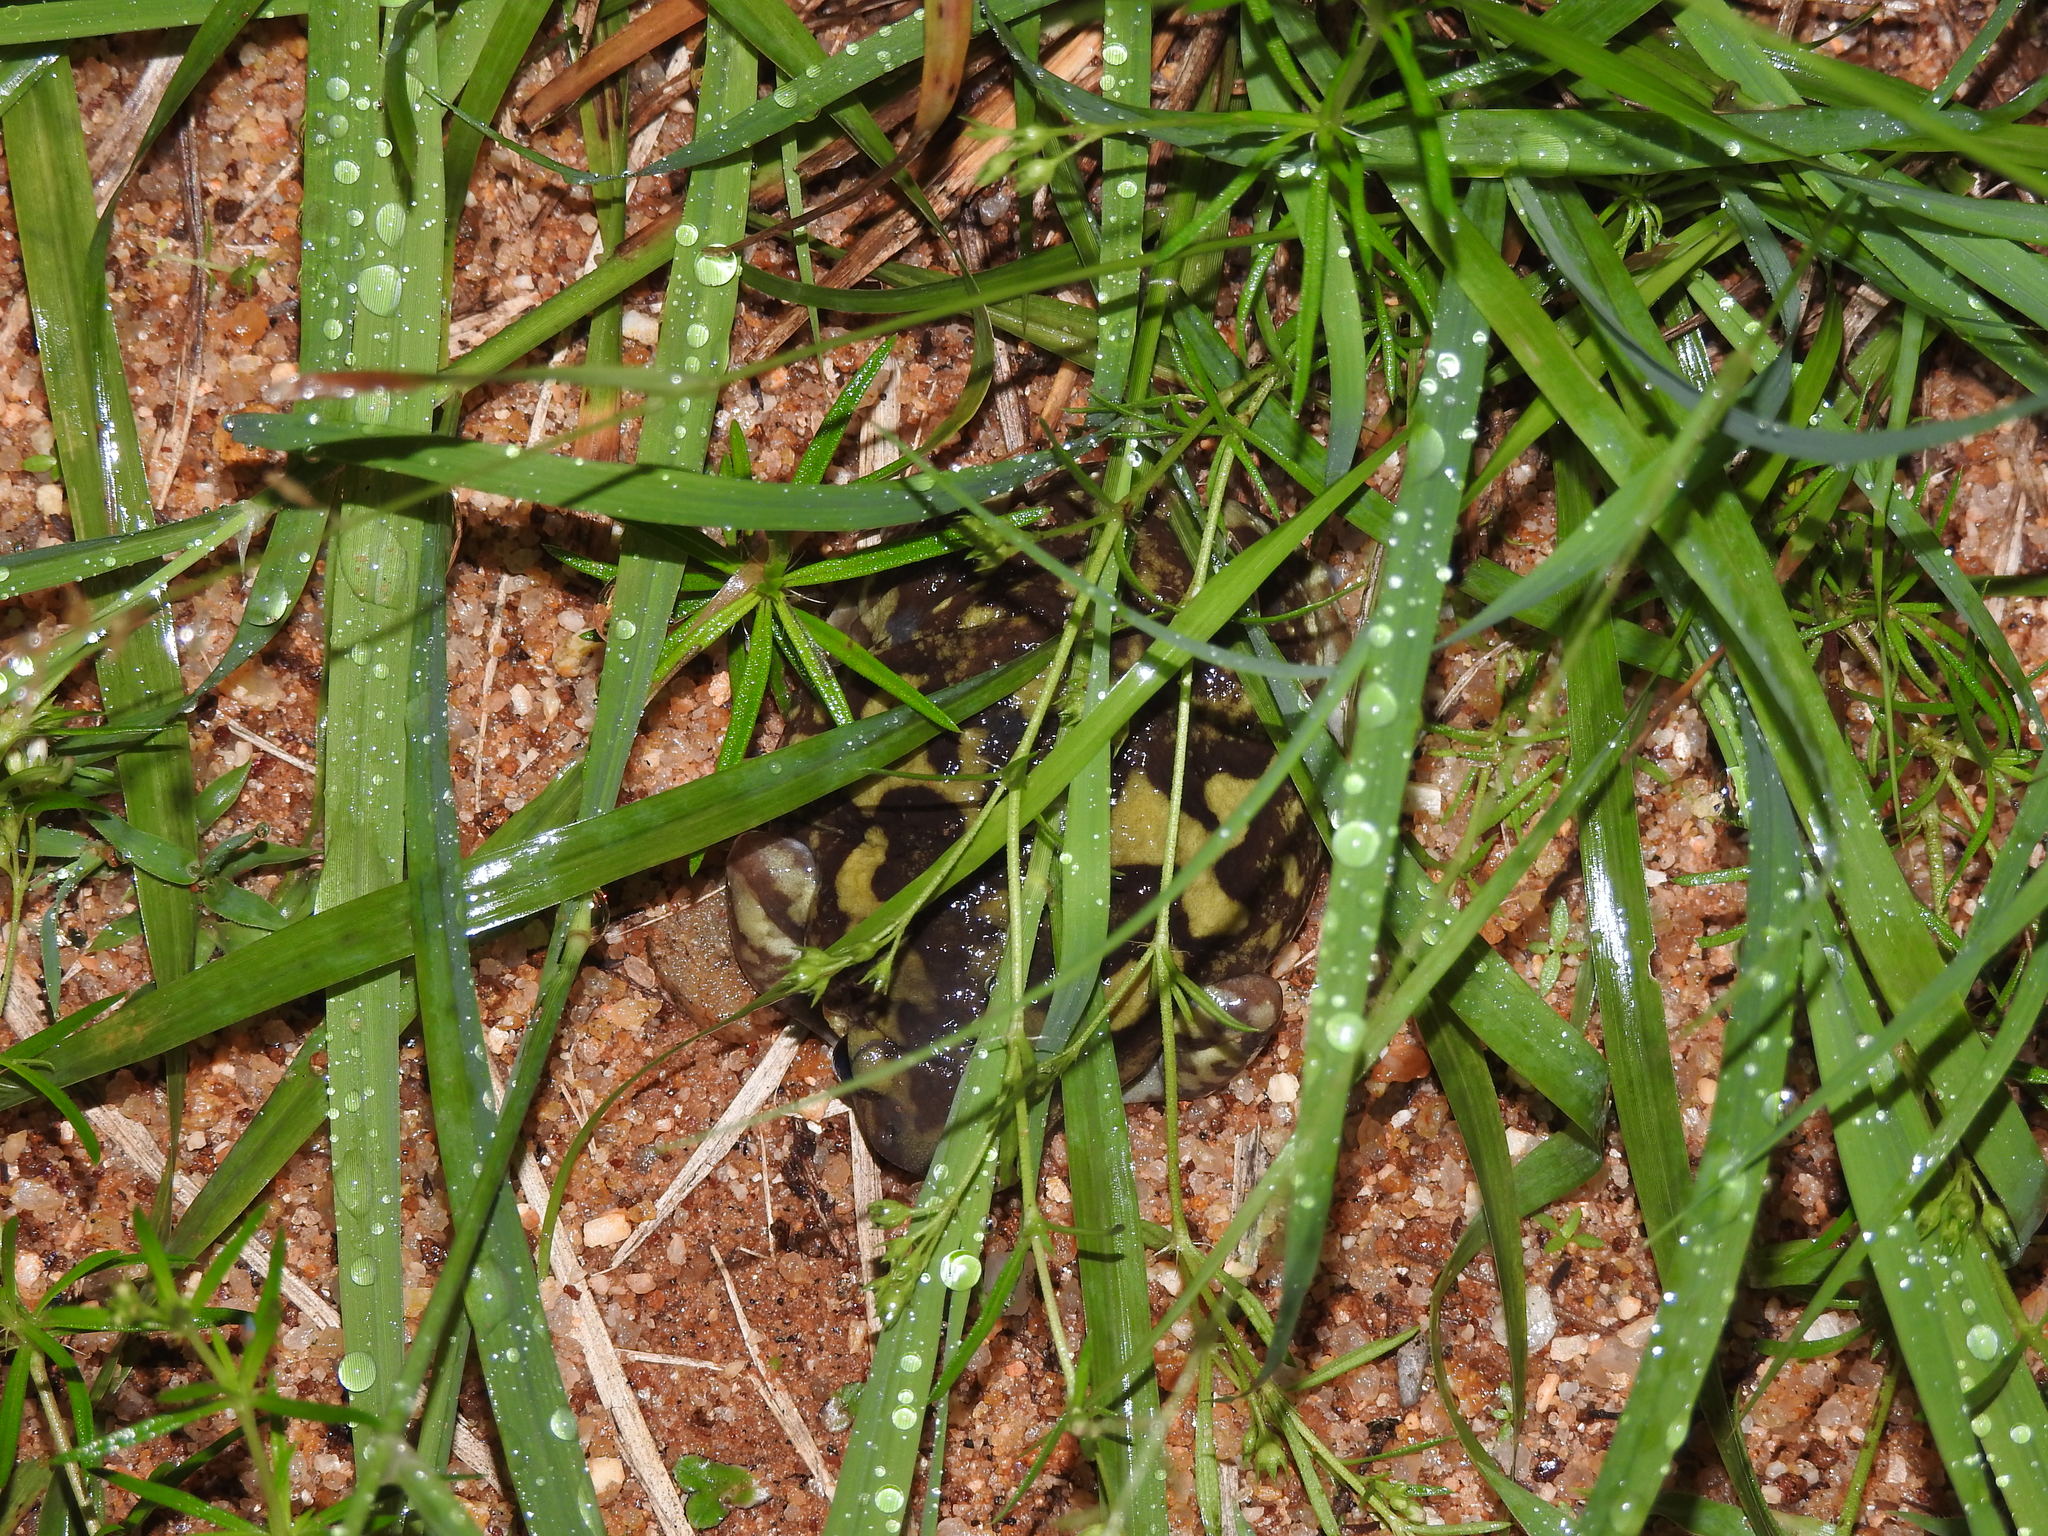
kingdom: Animalia
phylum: Chordata
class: Amphibia
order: Anura
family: Microhylidae
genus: Uperodon
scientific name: Uperodon systoma
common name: Balloon frog
